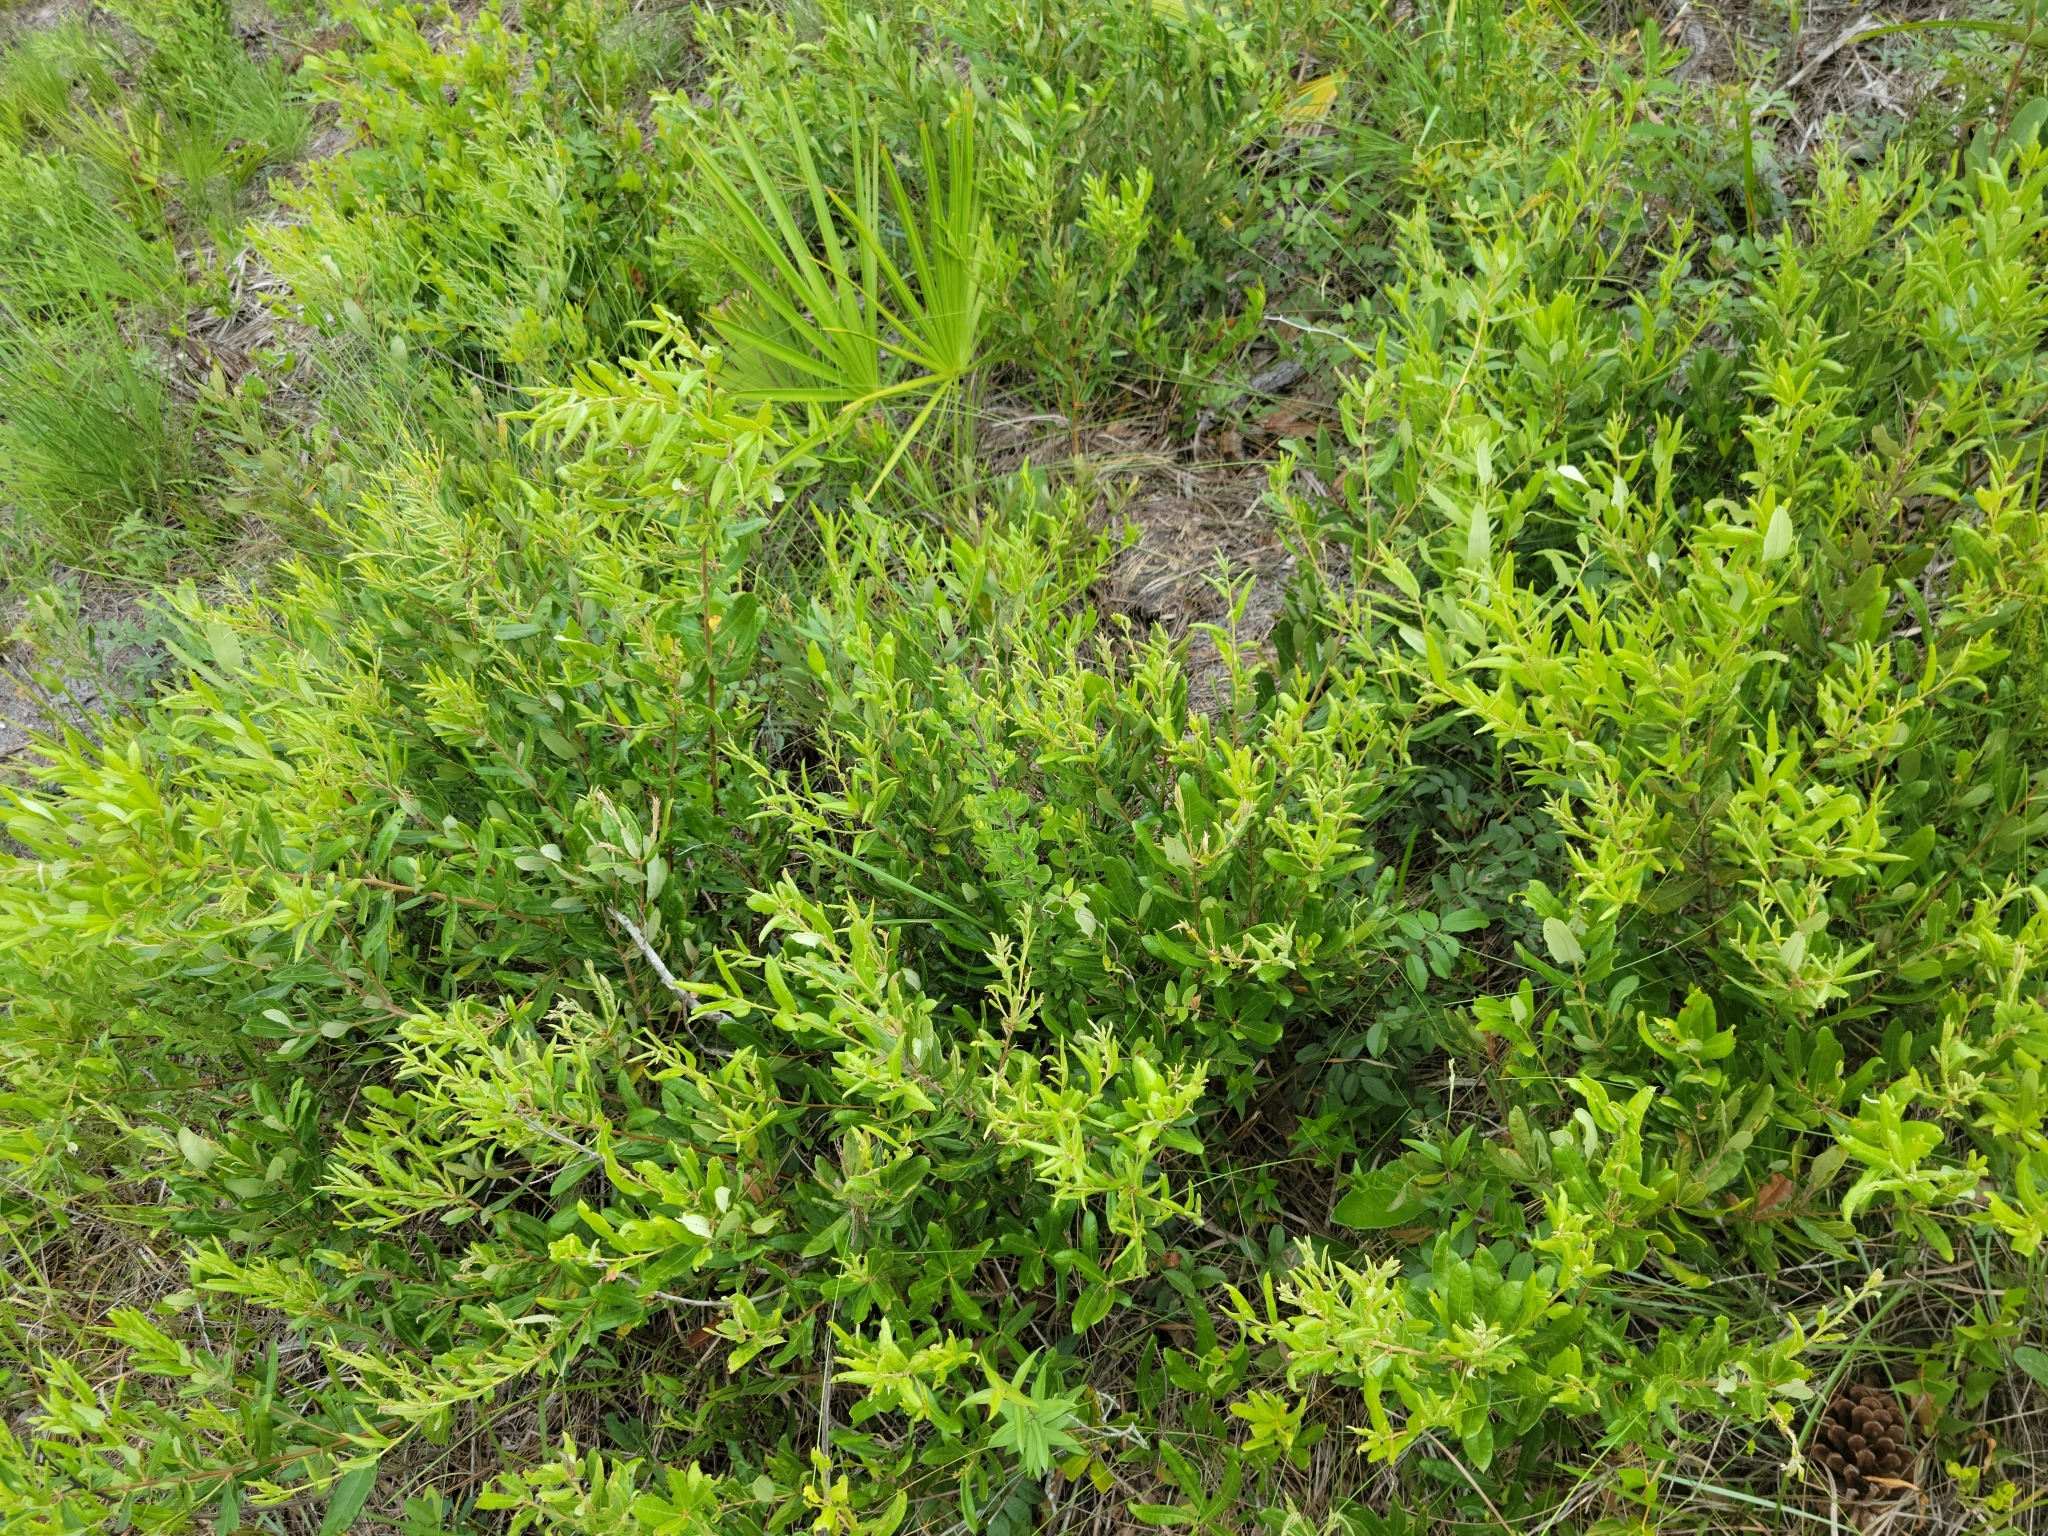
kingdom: Plantae
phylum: Tracheophyta
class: Magnoliopsida
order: Fagales
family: Fagaceae
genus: Quercus
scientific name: Quercus pumila
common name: Runner oak
